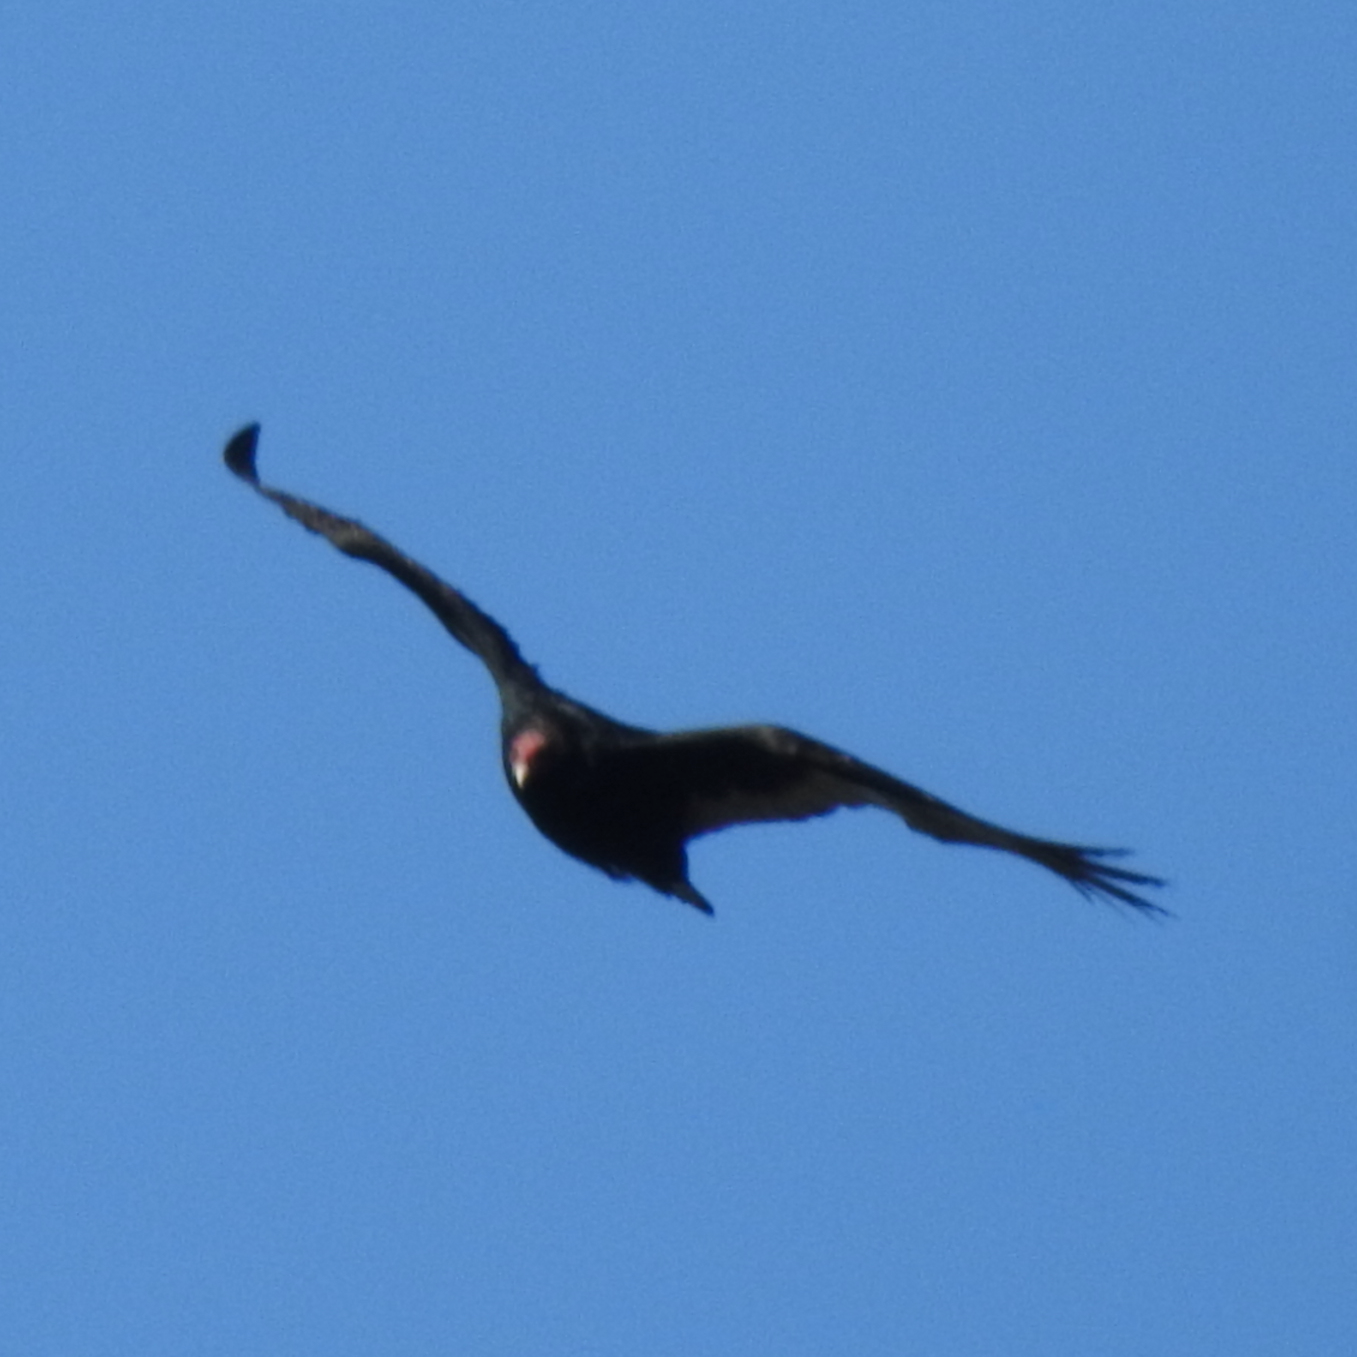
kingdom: Animalia
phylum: Chordata
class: Aves
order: Accipitriformes
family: Cathartidae
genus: Cathartes
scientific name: Cathartes aura
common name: Turkey vulture
